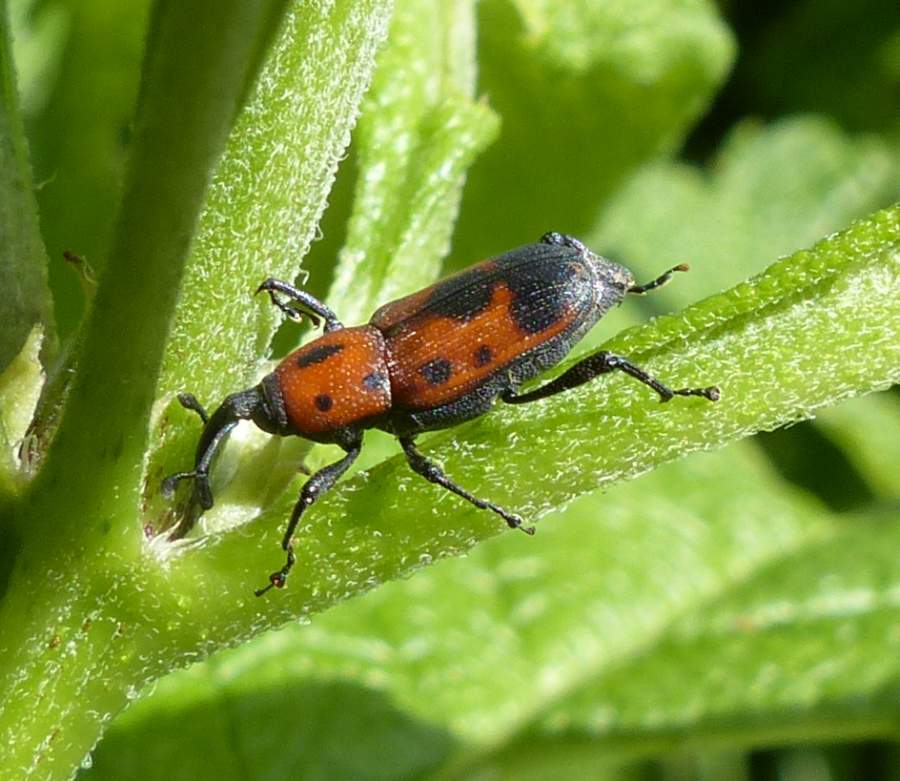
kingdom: Animalia
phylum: Arthropoda
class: Insecta
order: Coleoptera
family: Dryophthoridae
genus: Rhodobaenus
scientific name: Rhodobaenus quinquepunctatus
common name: Cocklebur weevil
